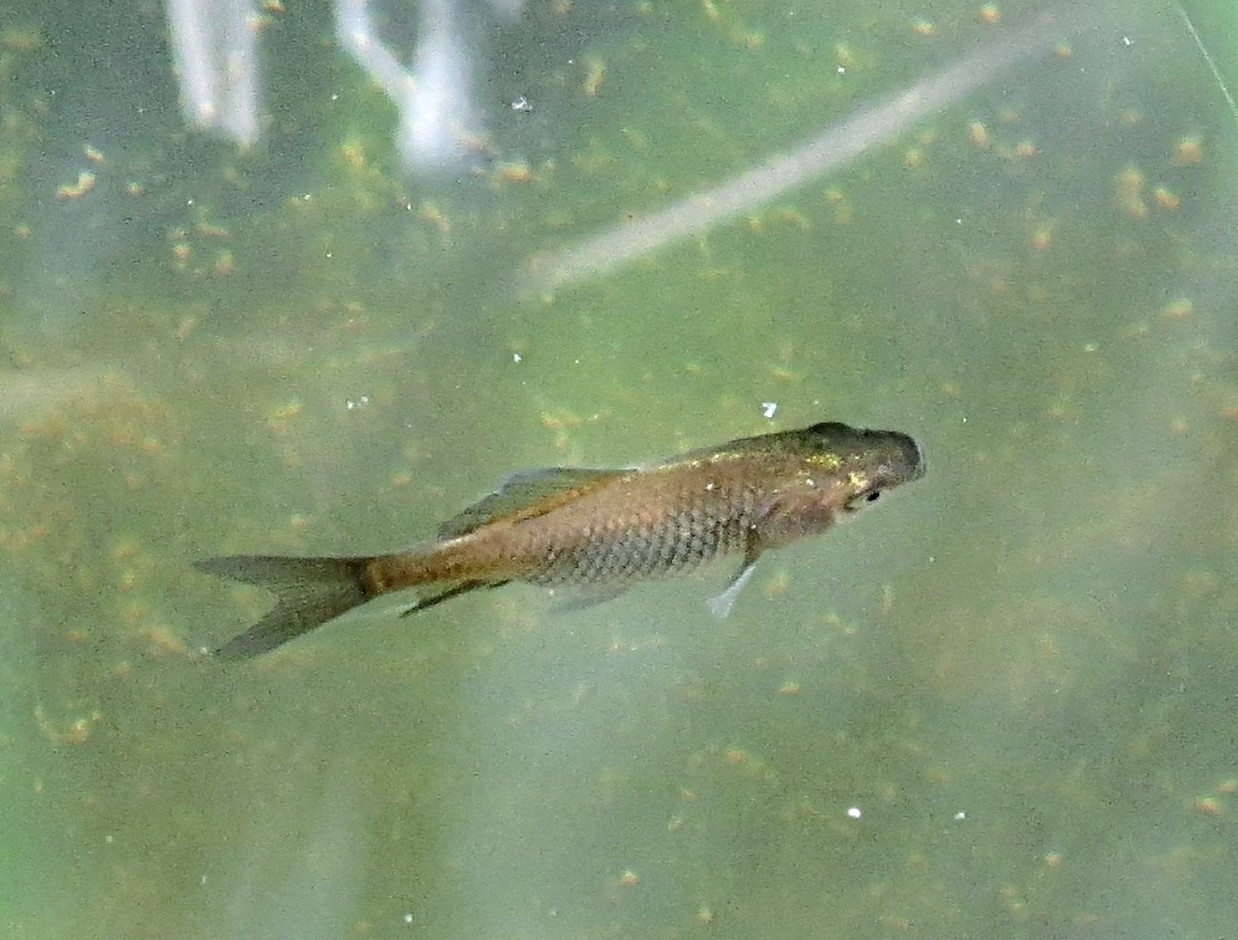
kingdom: Animalia
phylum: Chordata
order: Cypriniformes
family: Cyprinidae
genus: Carassius
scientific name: Carassius auratus
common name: Goldfish
